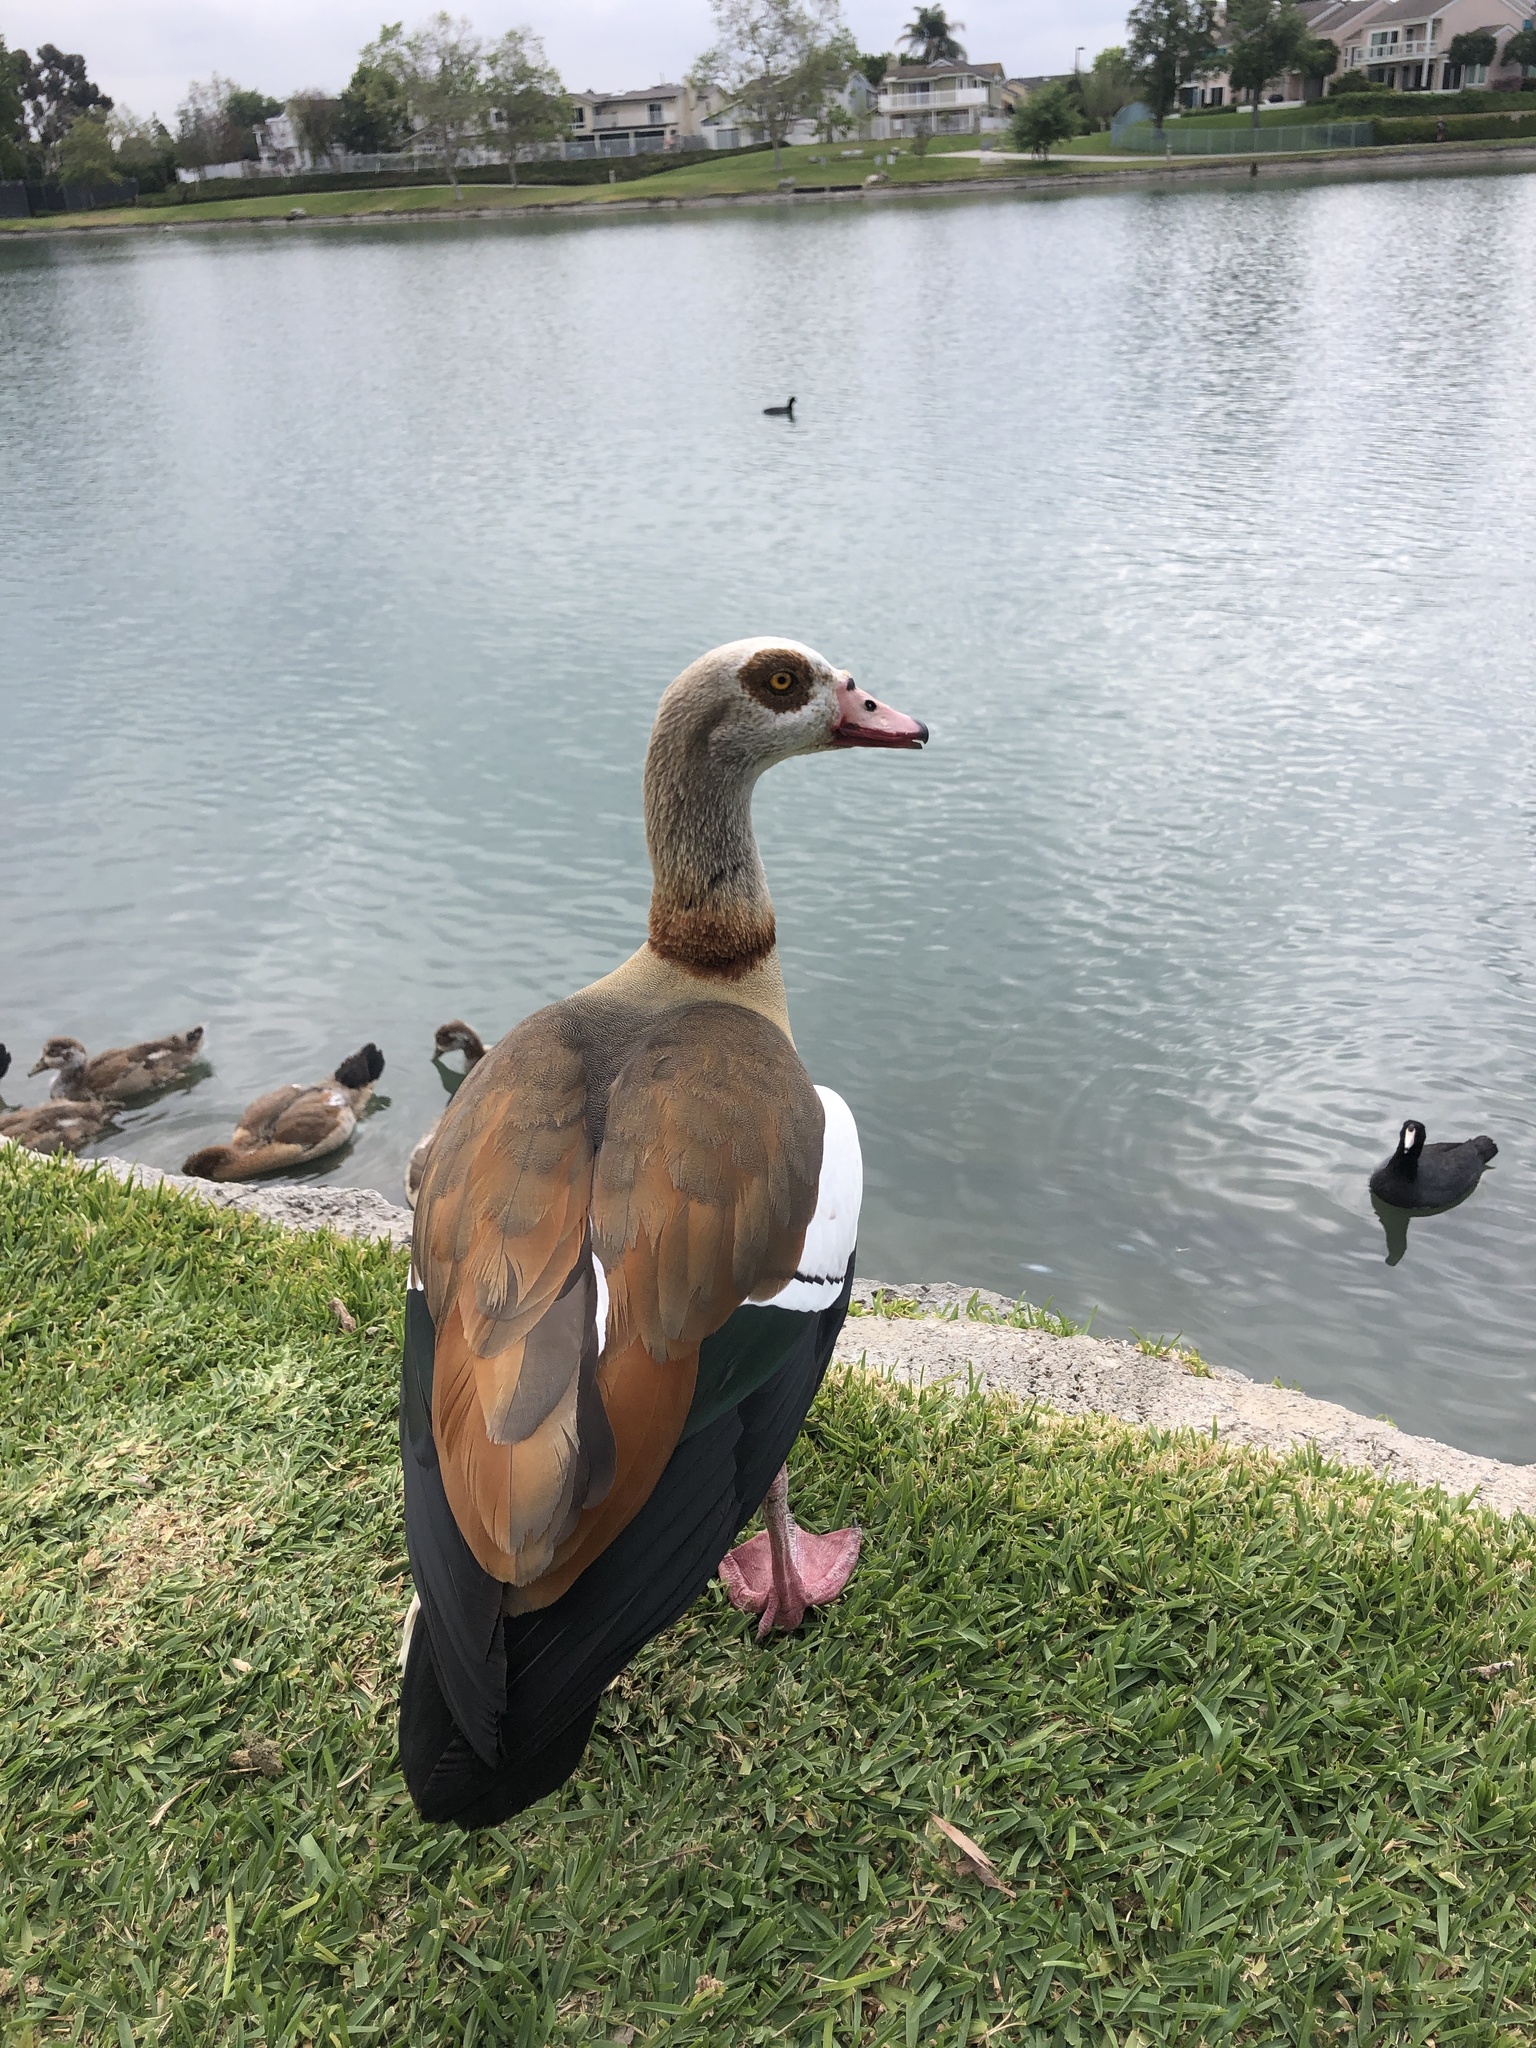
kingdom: Animalia
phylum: Chordata
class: Aves
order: Anseriformes
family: Anatidae
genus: Alopochen
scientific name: Alopochen aegyptiaca
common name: Egyptian goose
